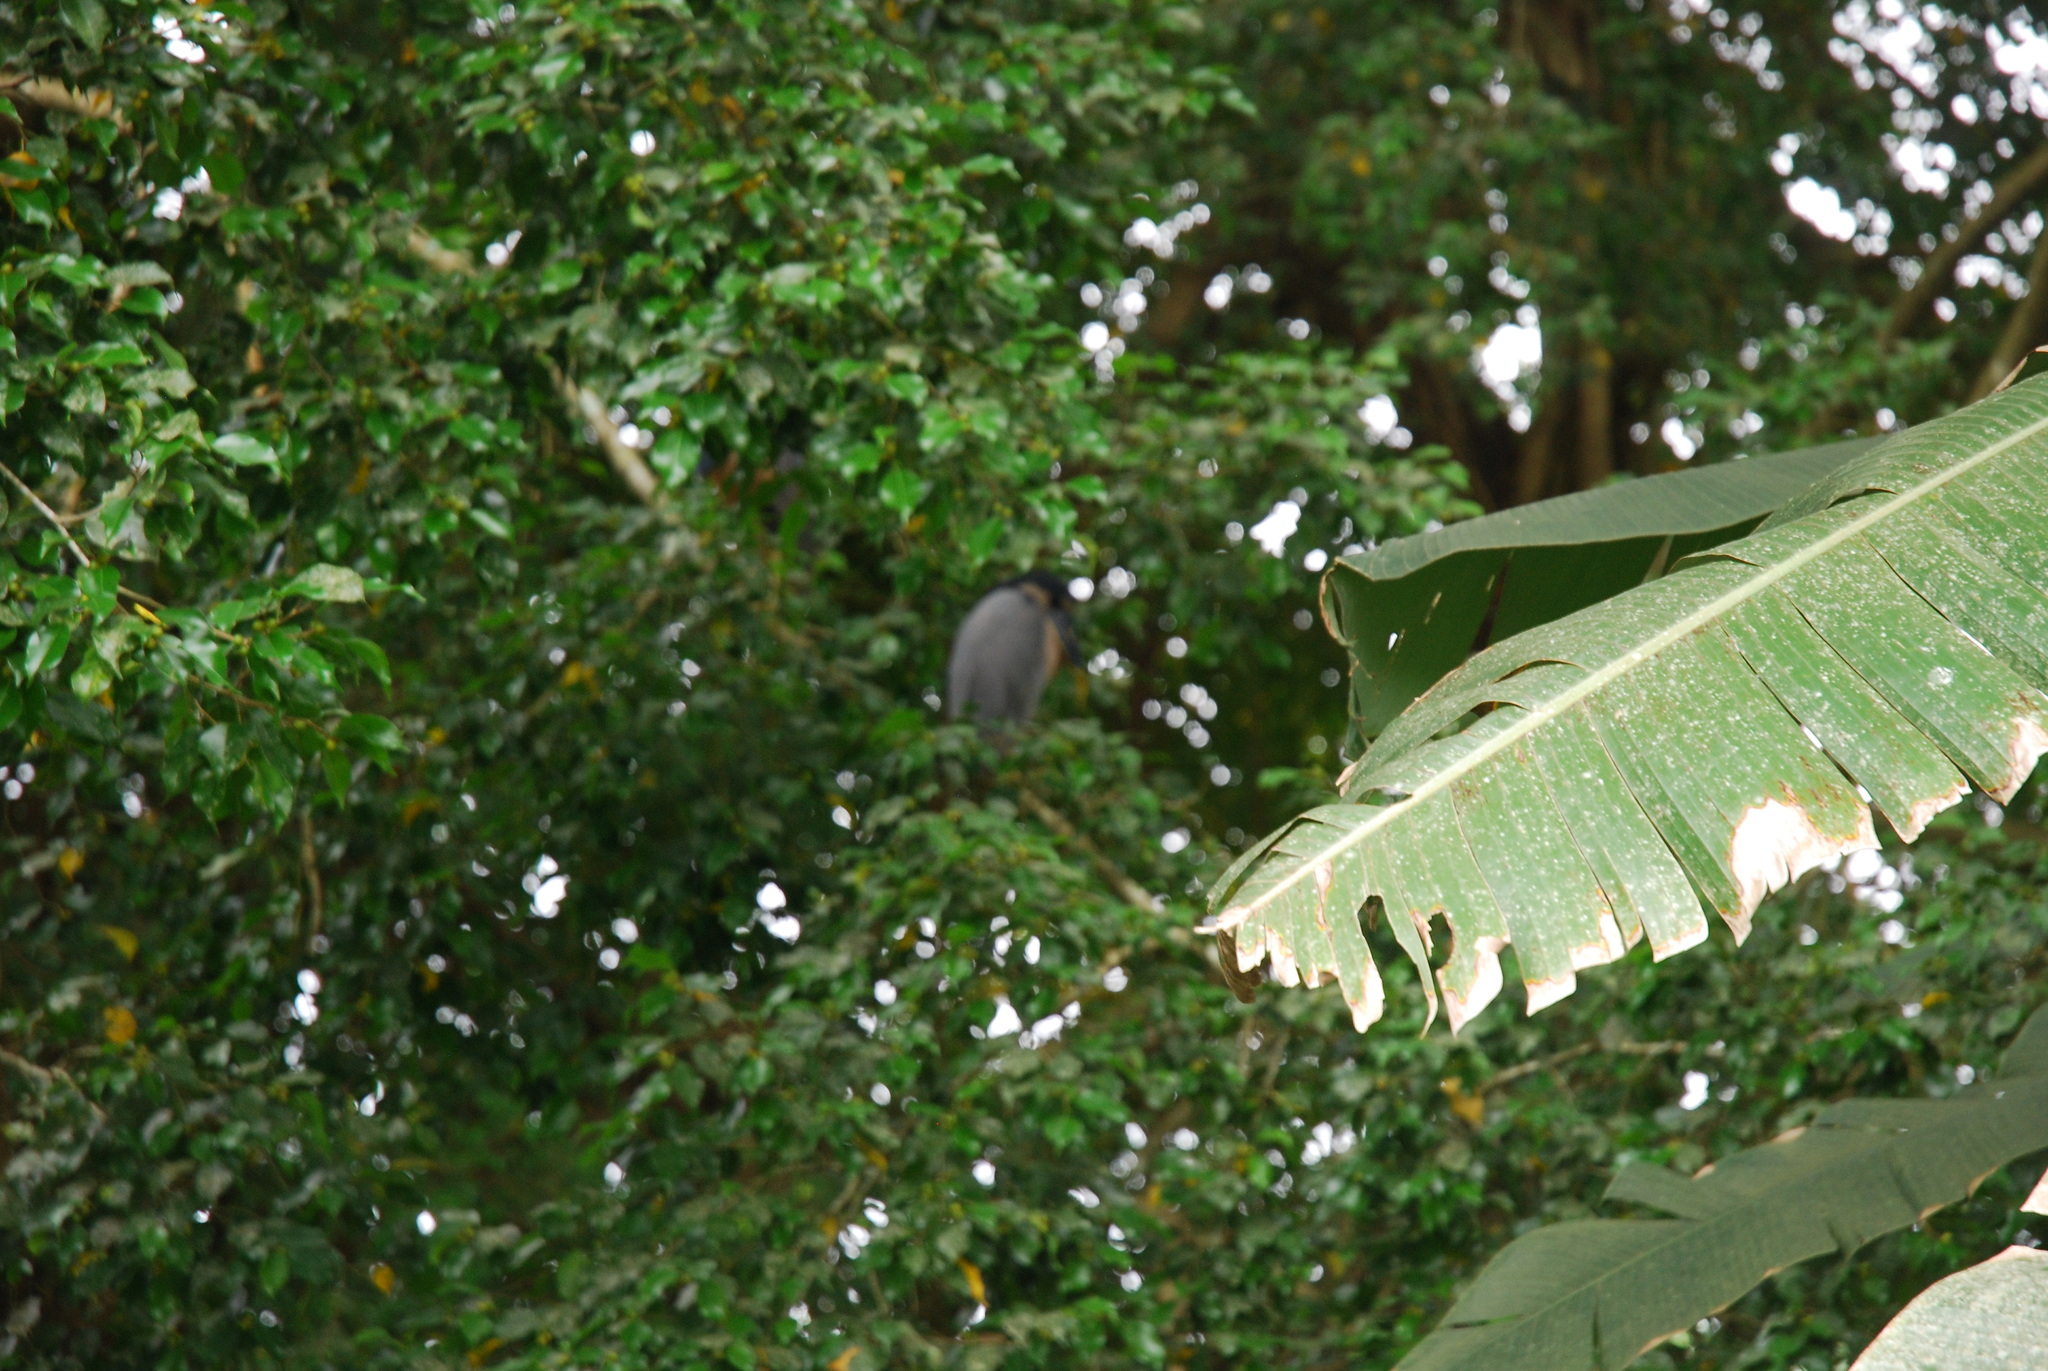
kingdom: Animalia
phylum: Chordata
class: Aves
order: Pelecaniformes
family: Ardeidae
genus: Cochlearius
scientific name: Cochlearius cochlearius
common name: Boat-billed heron
